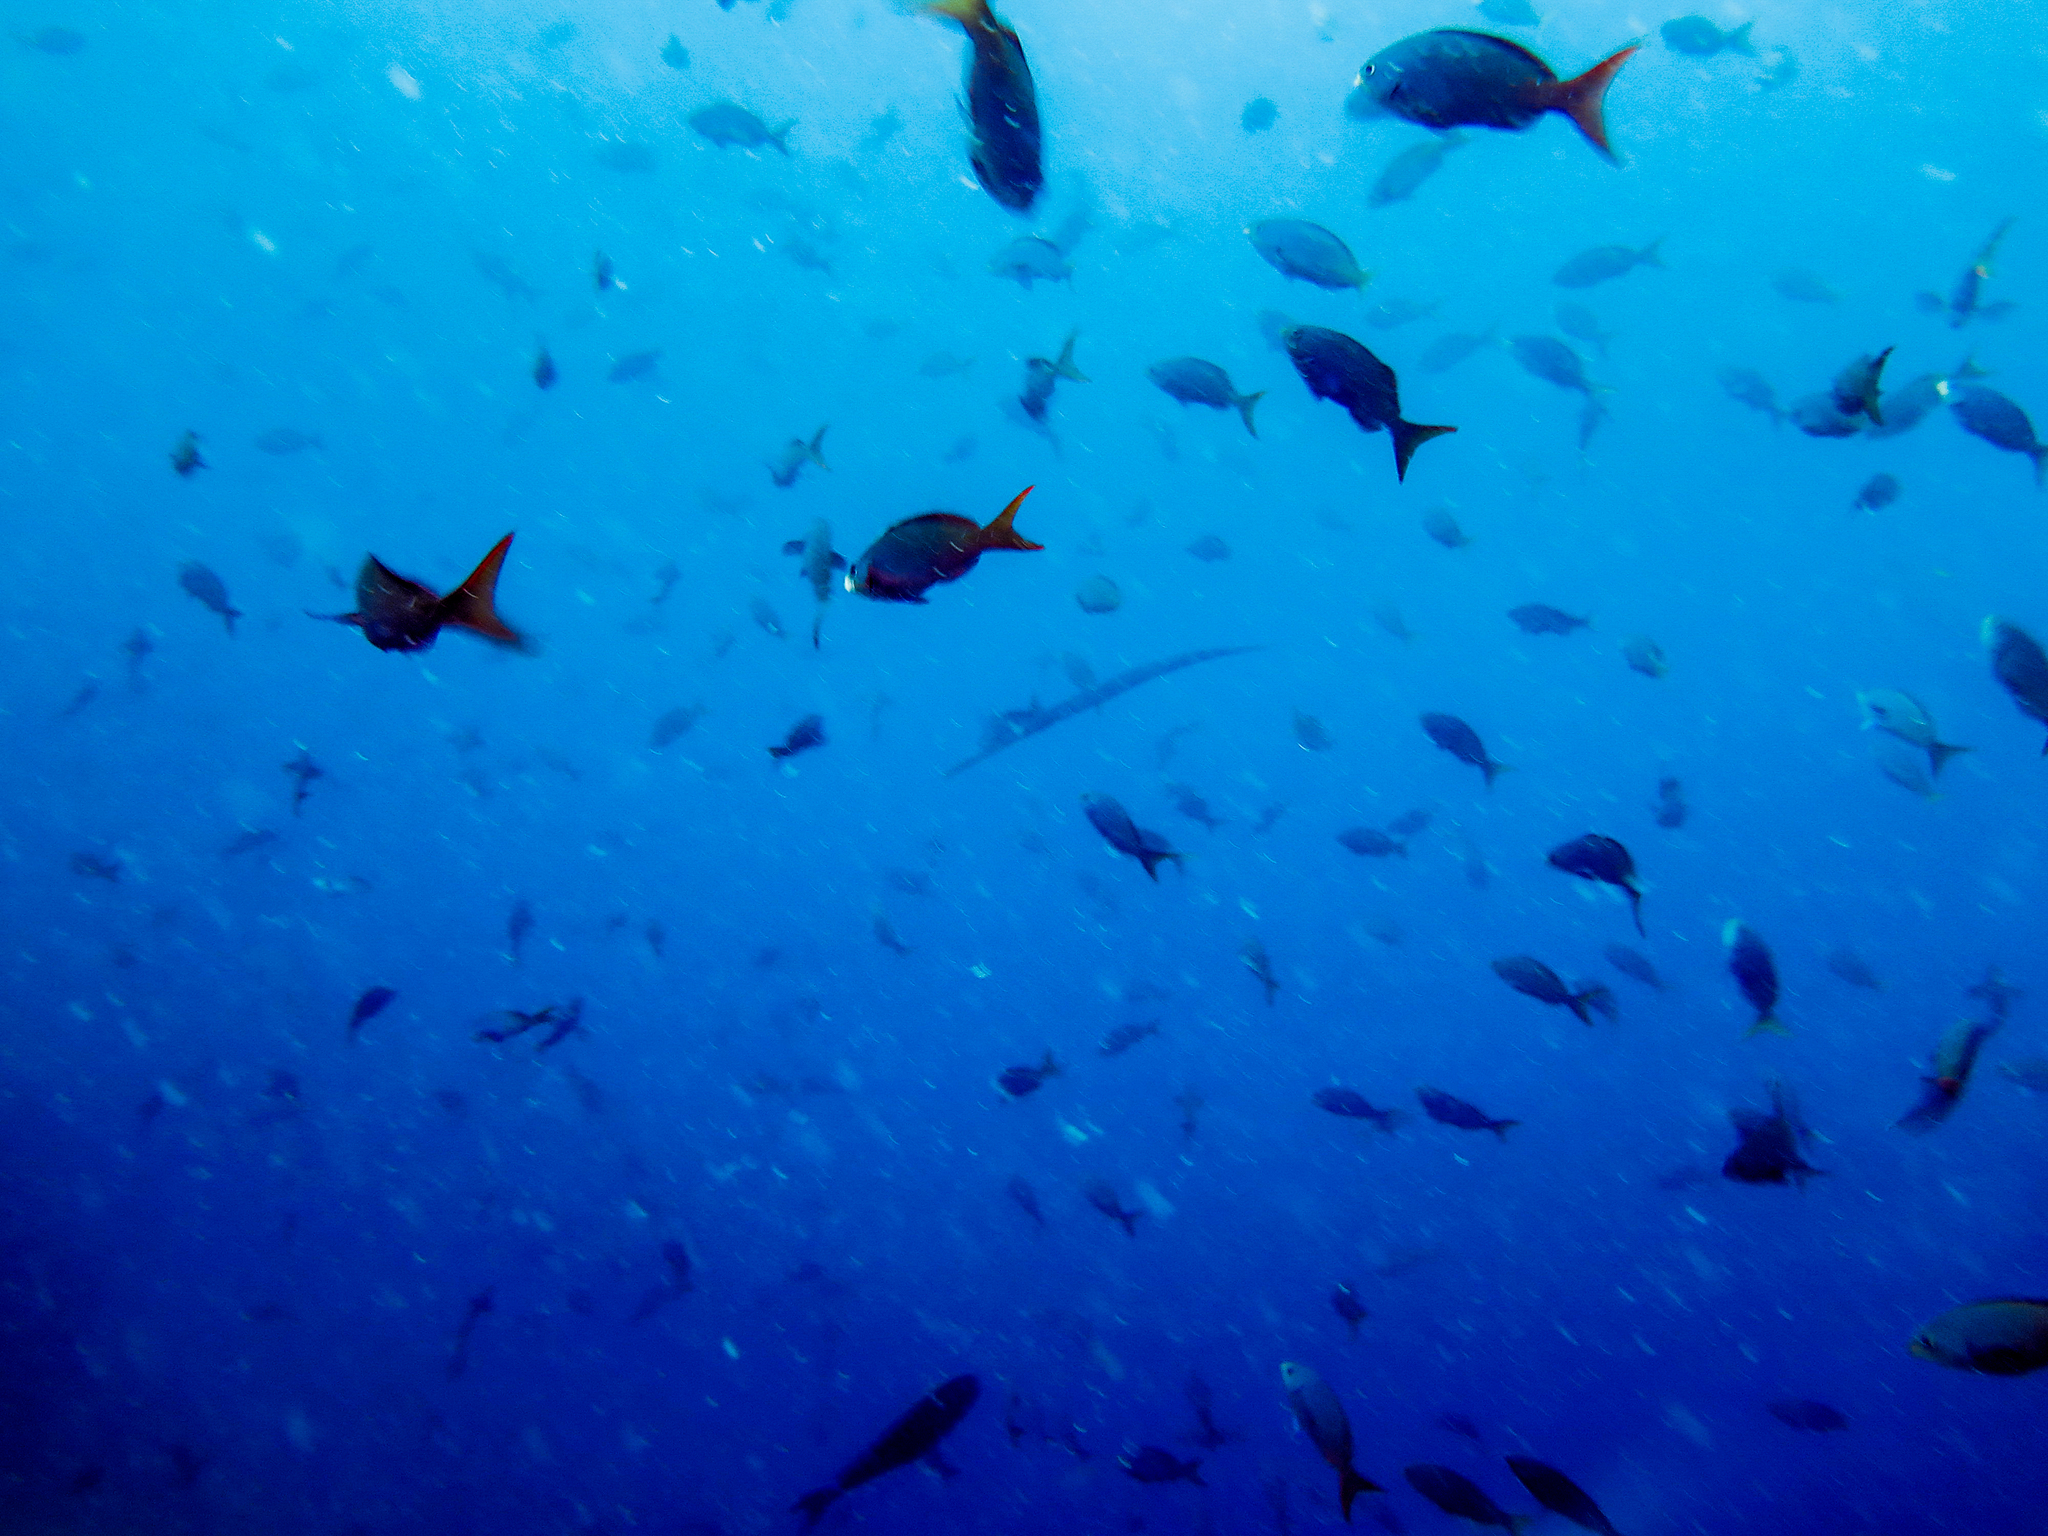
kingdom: Animalia
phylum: Chordata
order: Perciformes
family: Serranidae
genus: Paranthias
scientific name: Paranthias colonus
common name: Pacific creole-fish
